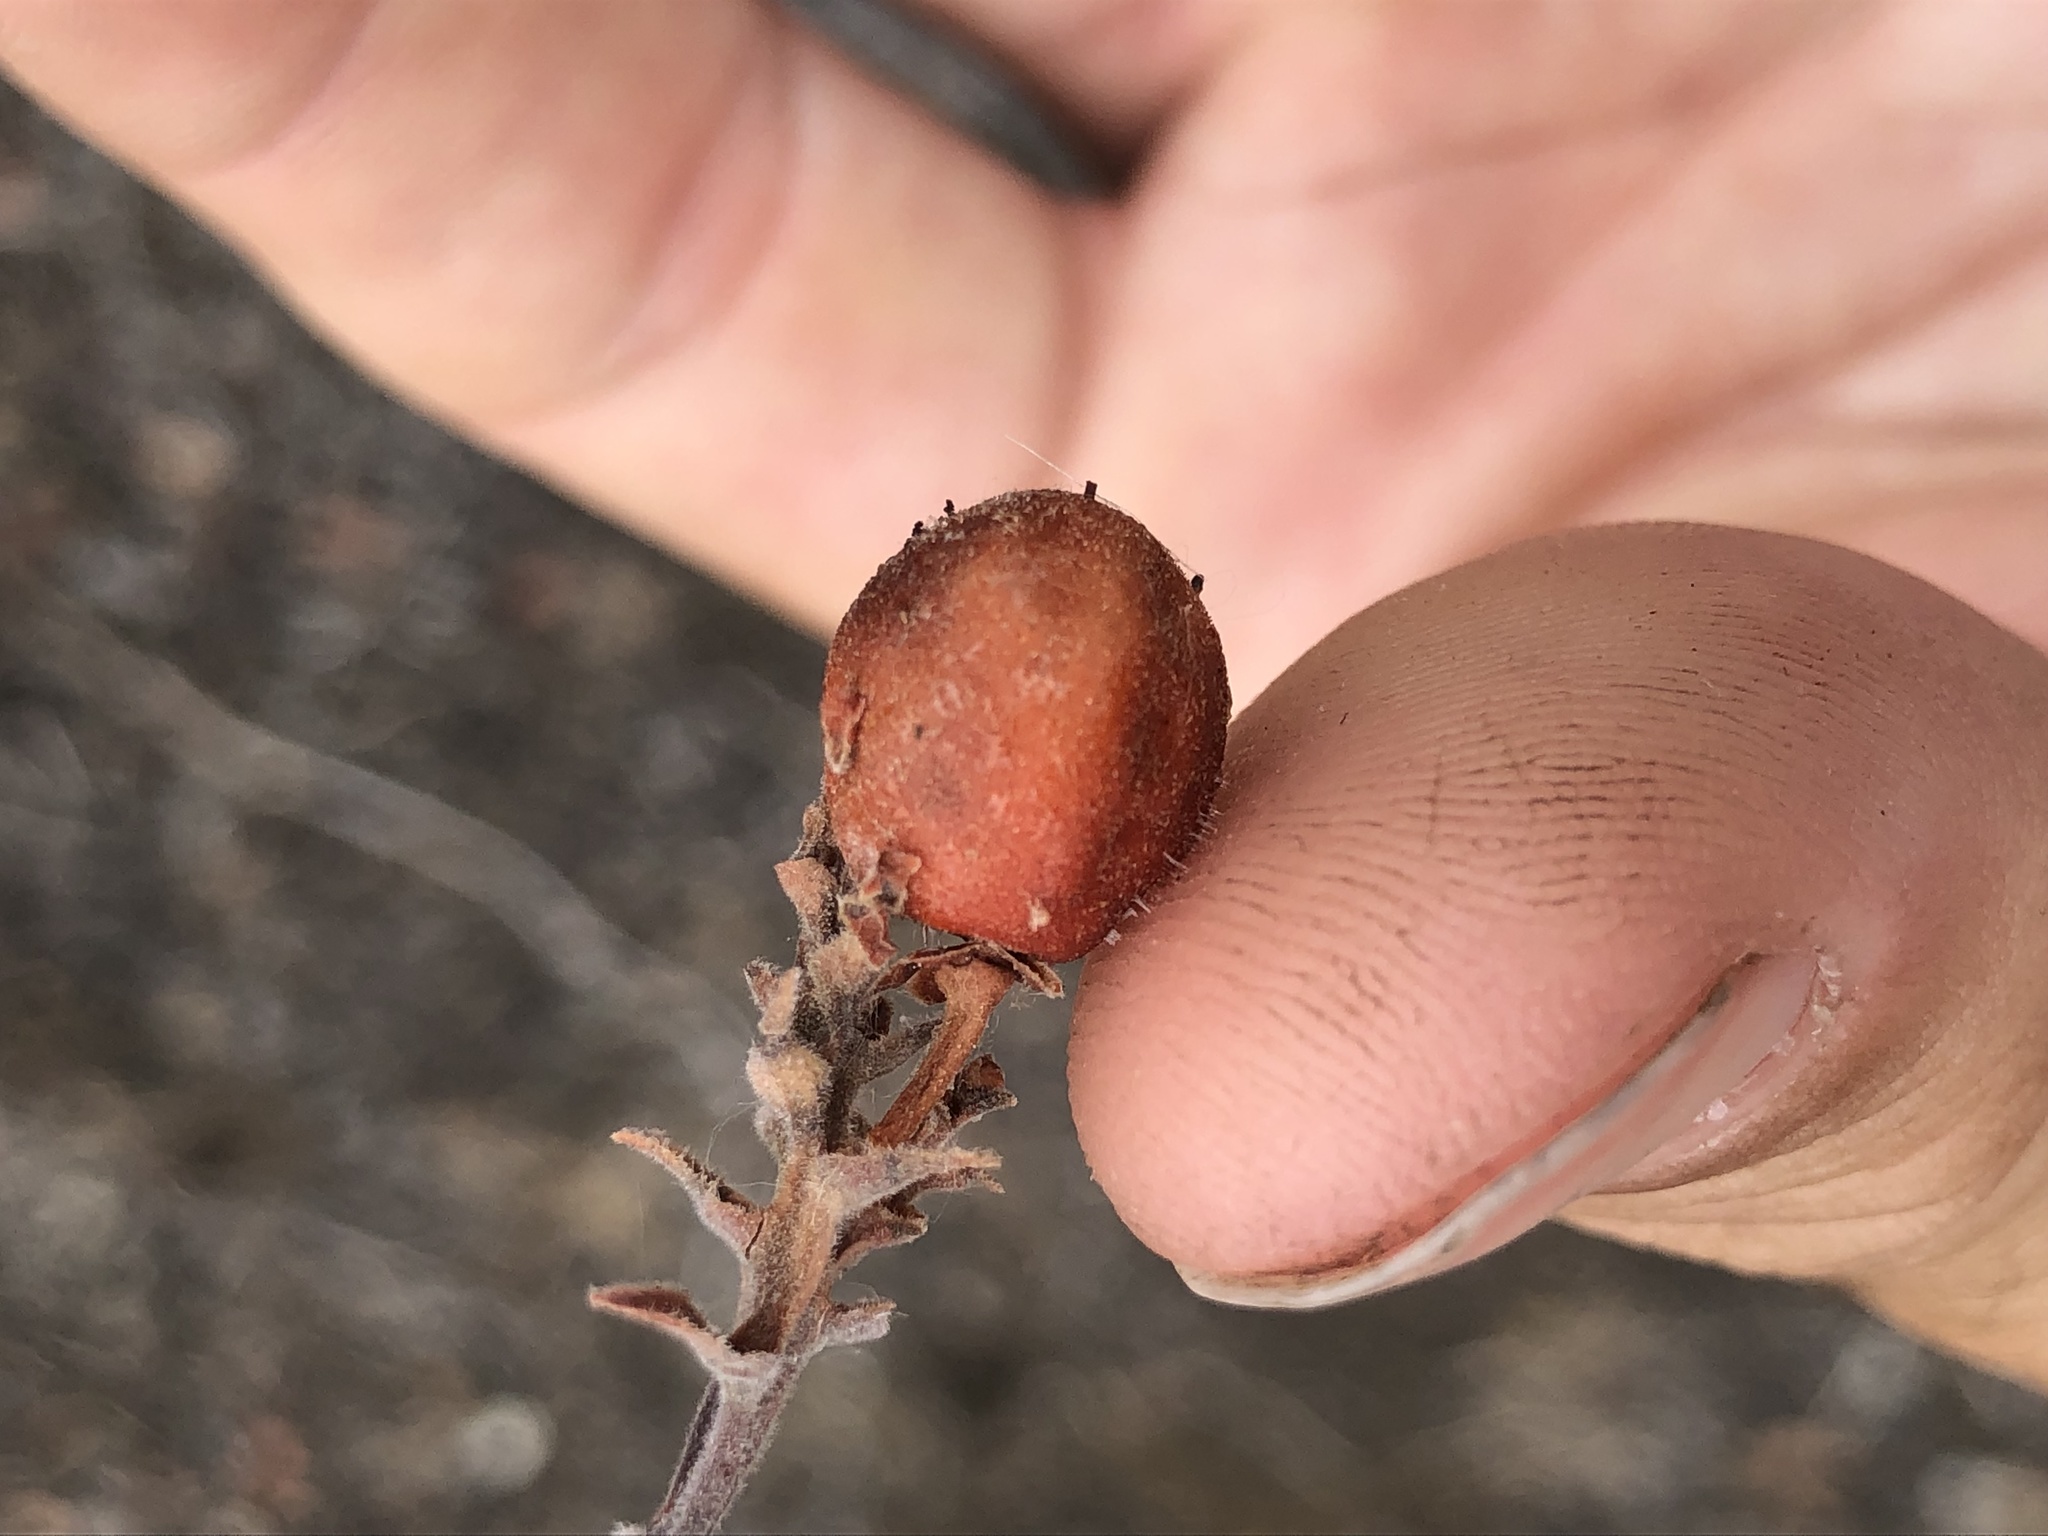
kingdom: Plantae
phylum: Tracheophyta
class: Magnoliopsida
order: Ericales
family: Ericaceae
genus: Arctostaphylos
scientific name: Arctostaphylos glauca
